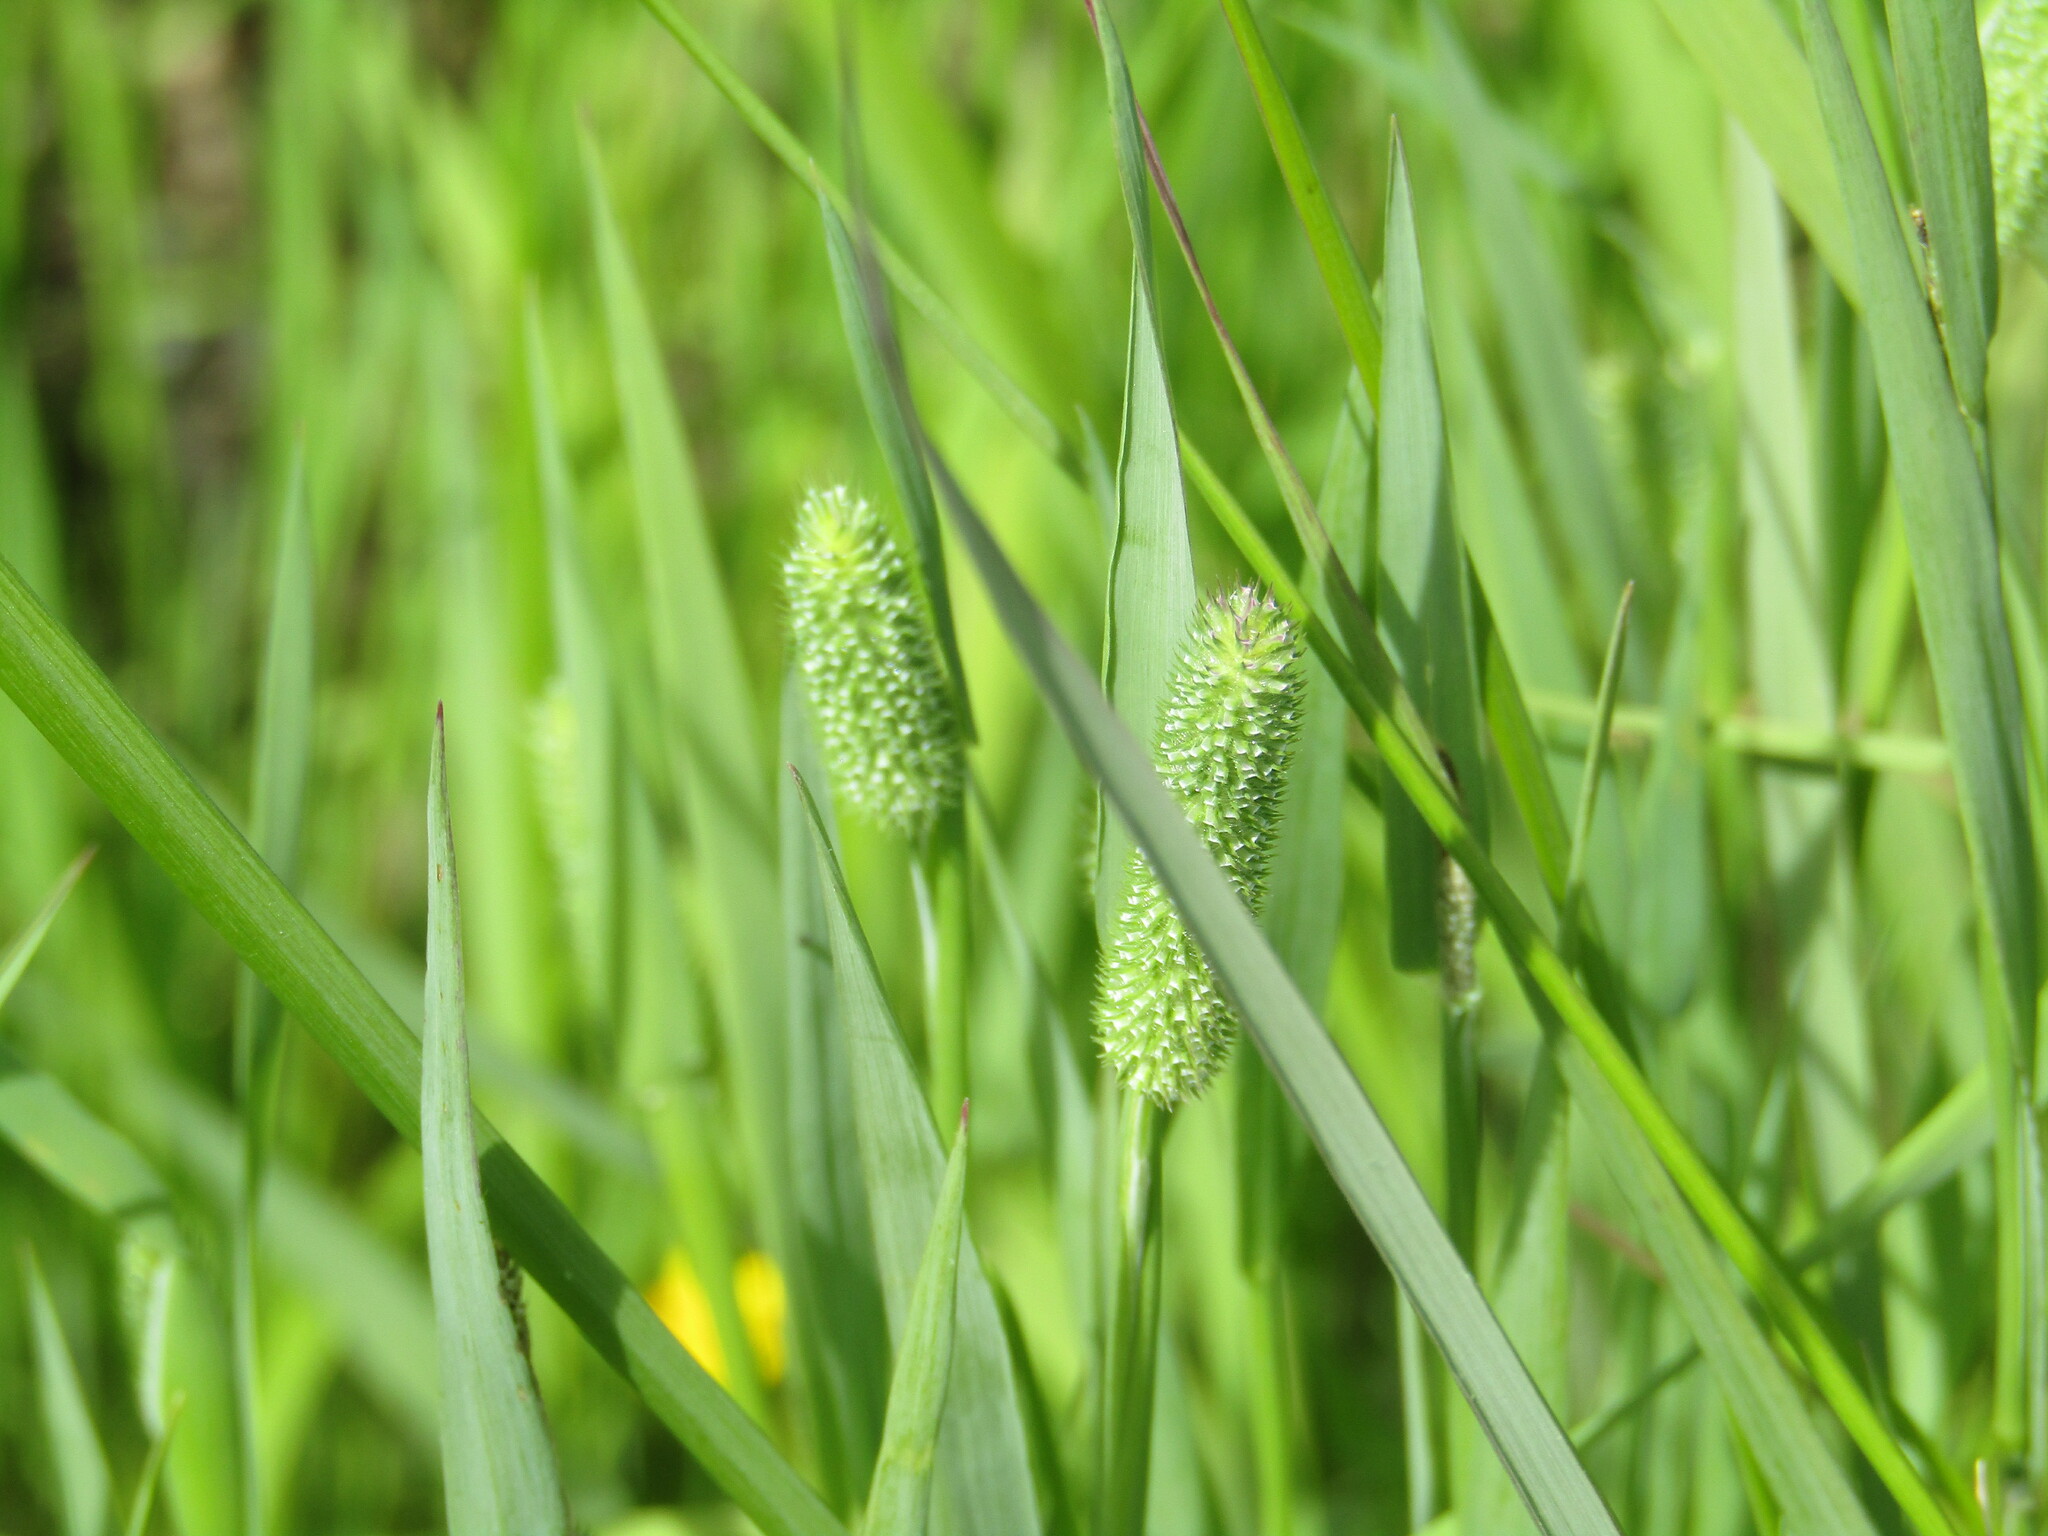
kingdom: Plantae
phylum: Tracheophyta
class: Liliopsida
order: Poales
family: Poaceae
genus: Phleum
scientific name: Phleum pratense
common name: Timothy grass
